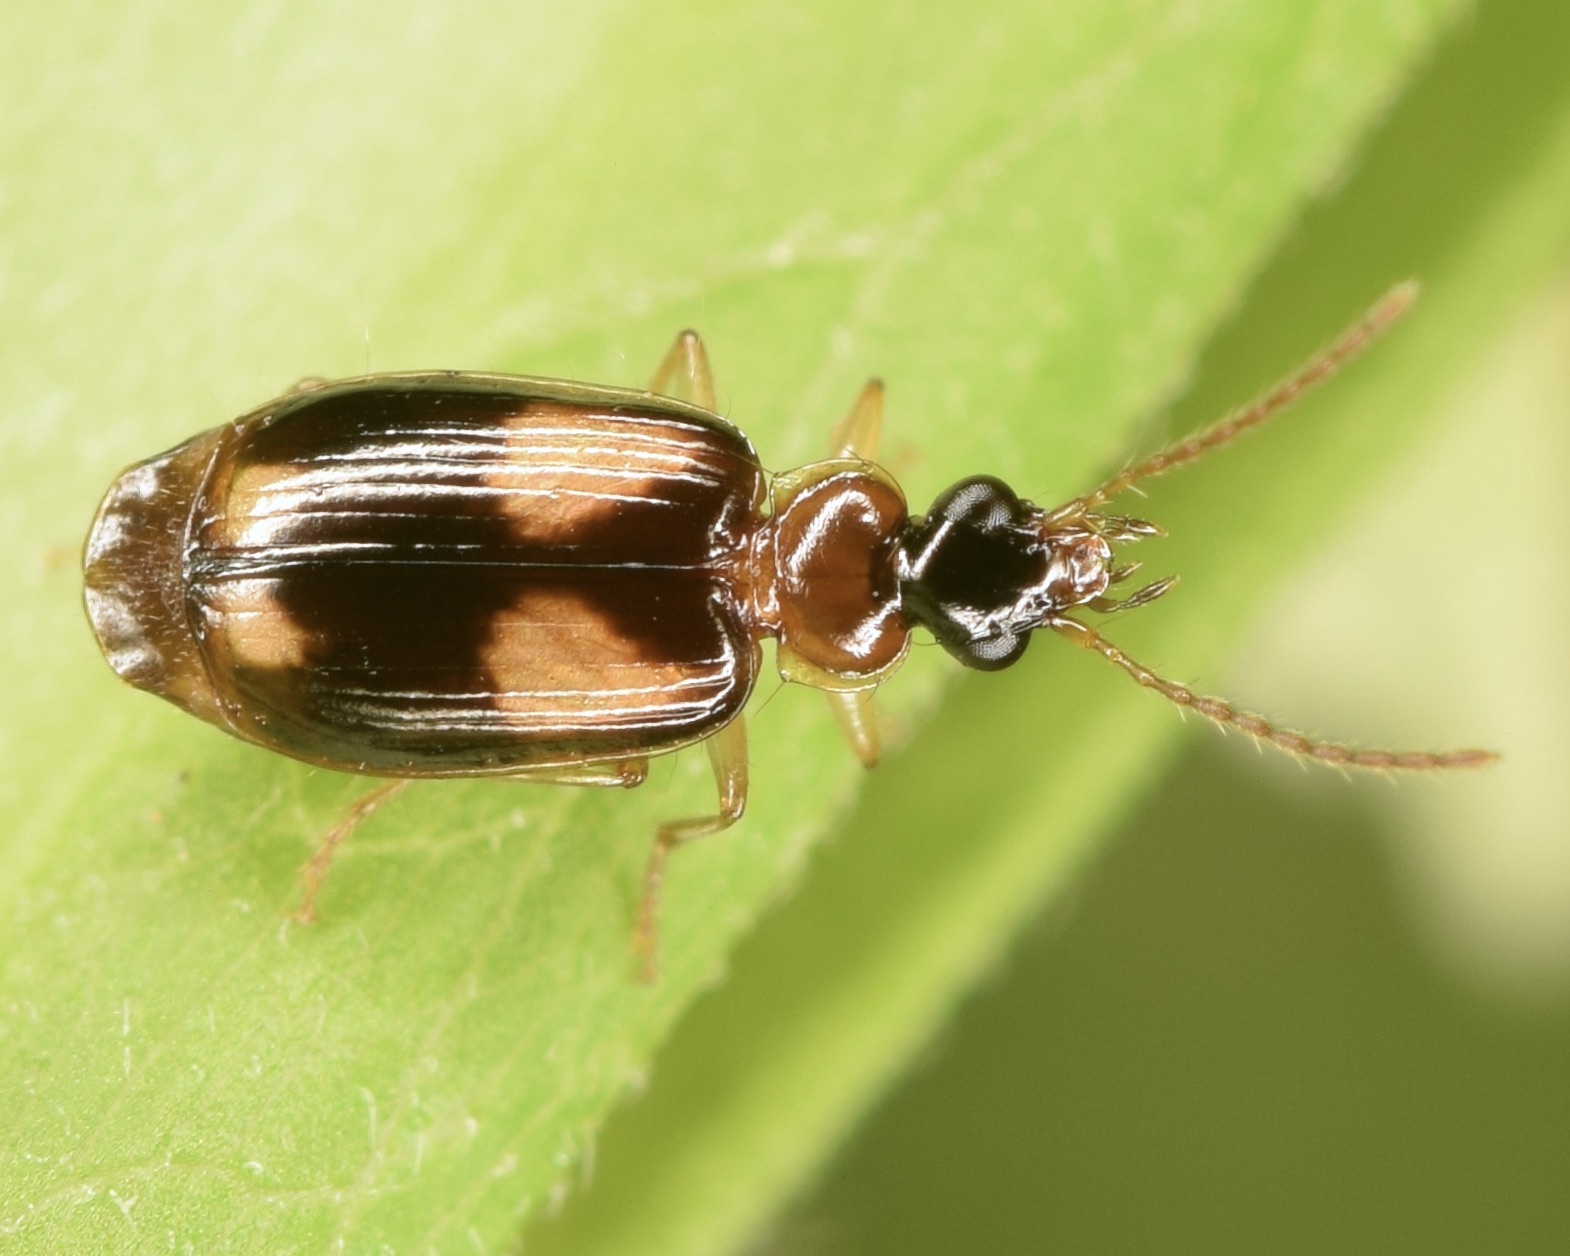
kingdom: Animalia
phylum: Arthropoda
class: Insecta
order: Coleoptera
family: Carabidae
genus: Lebia
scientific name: Lebia ornata
